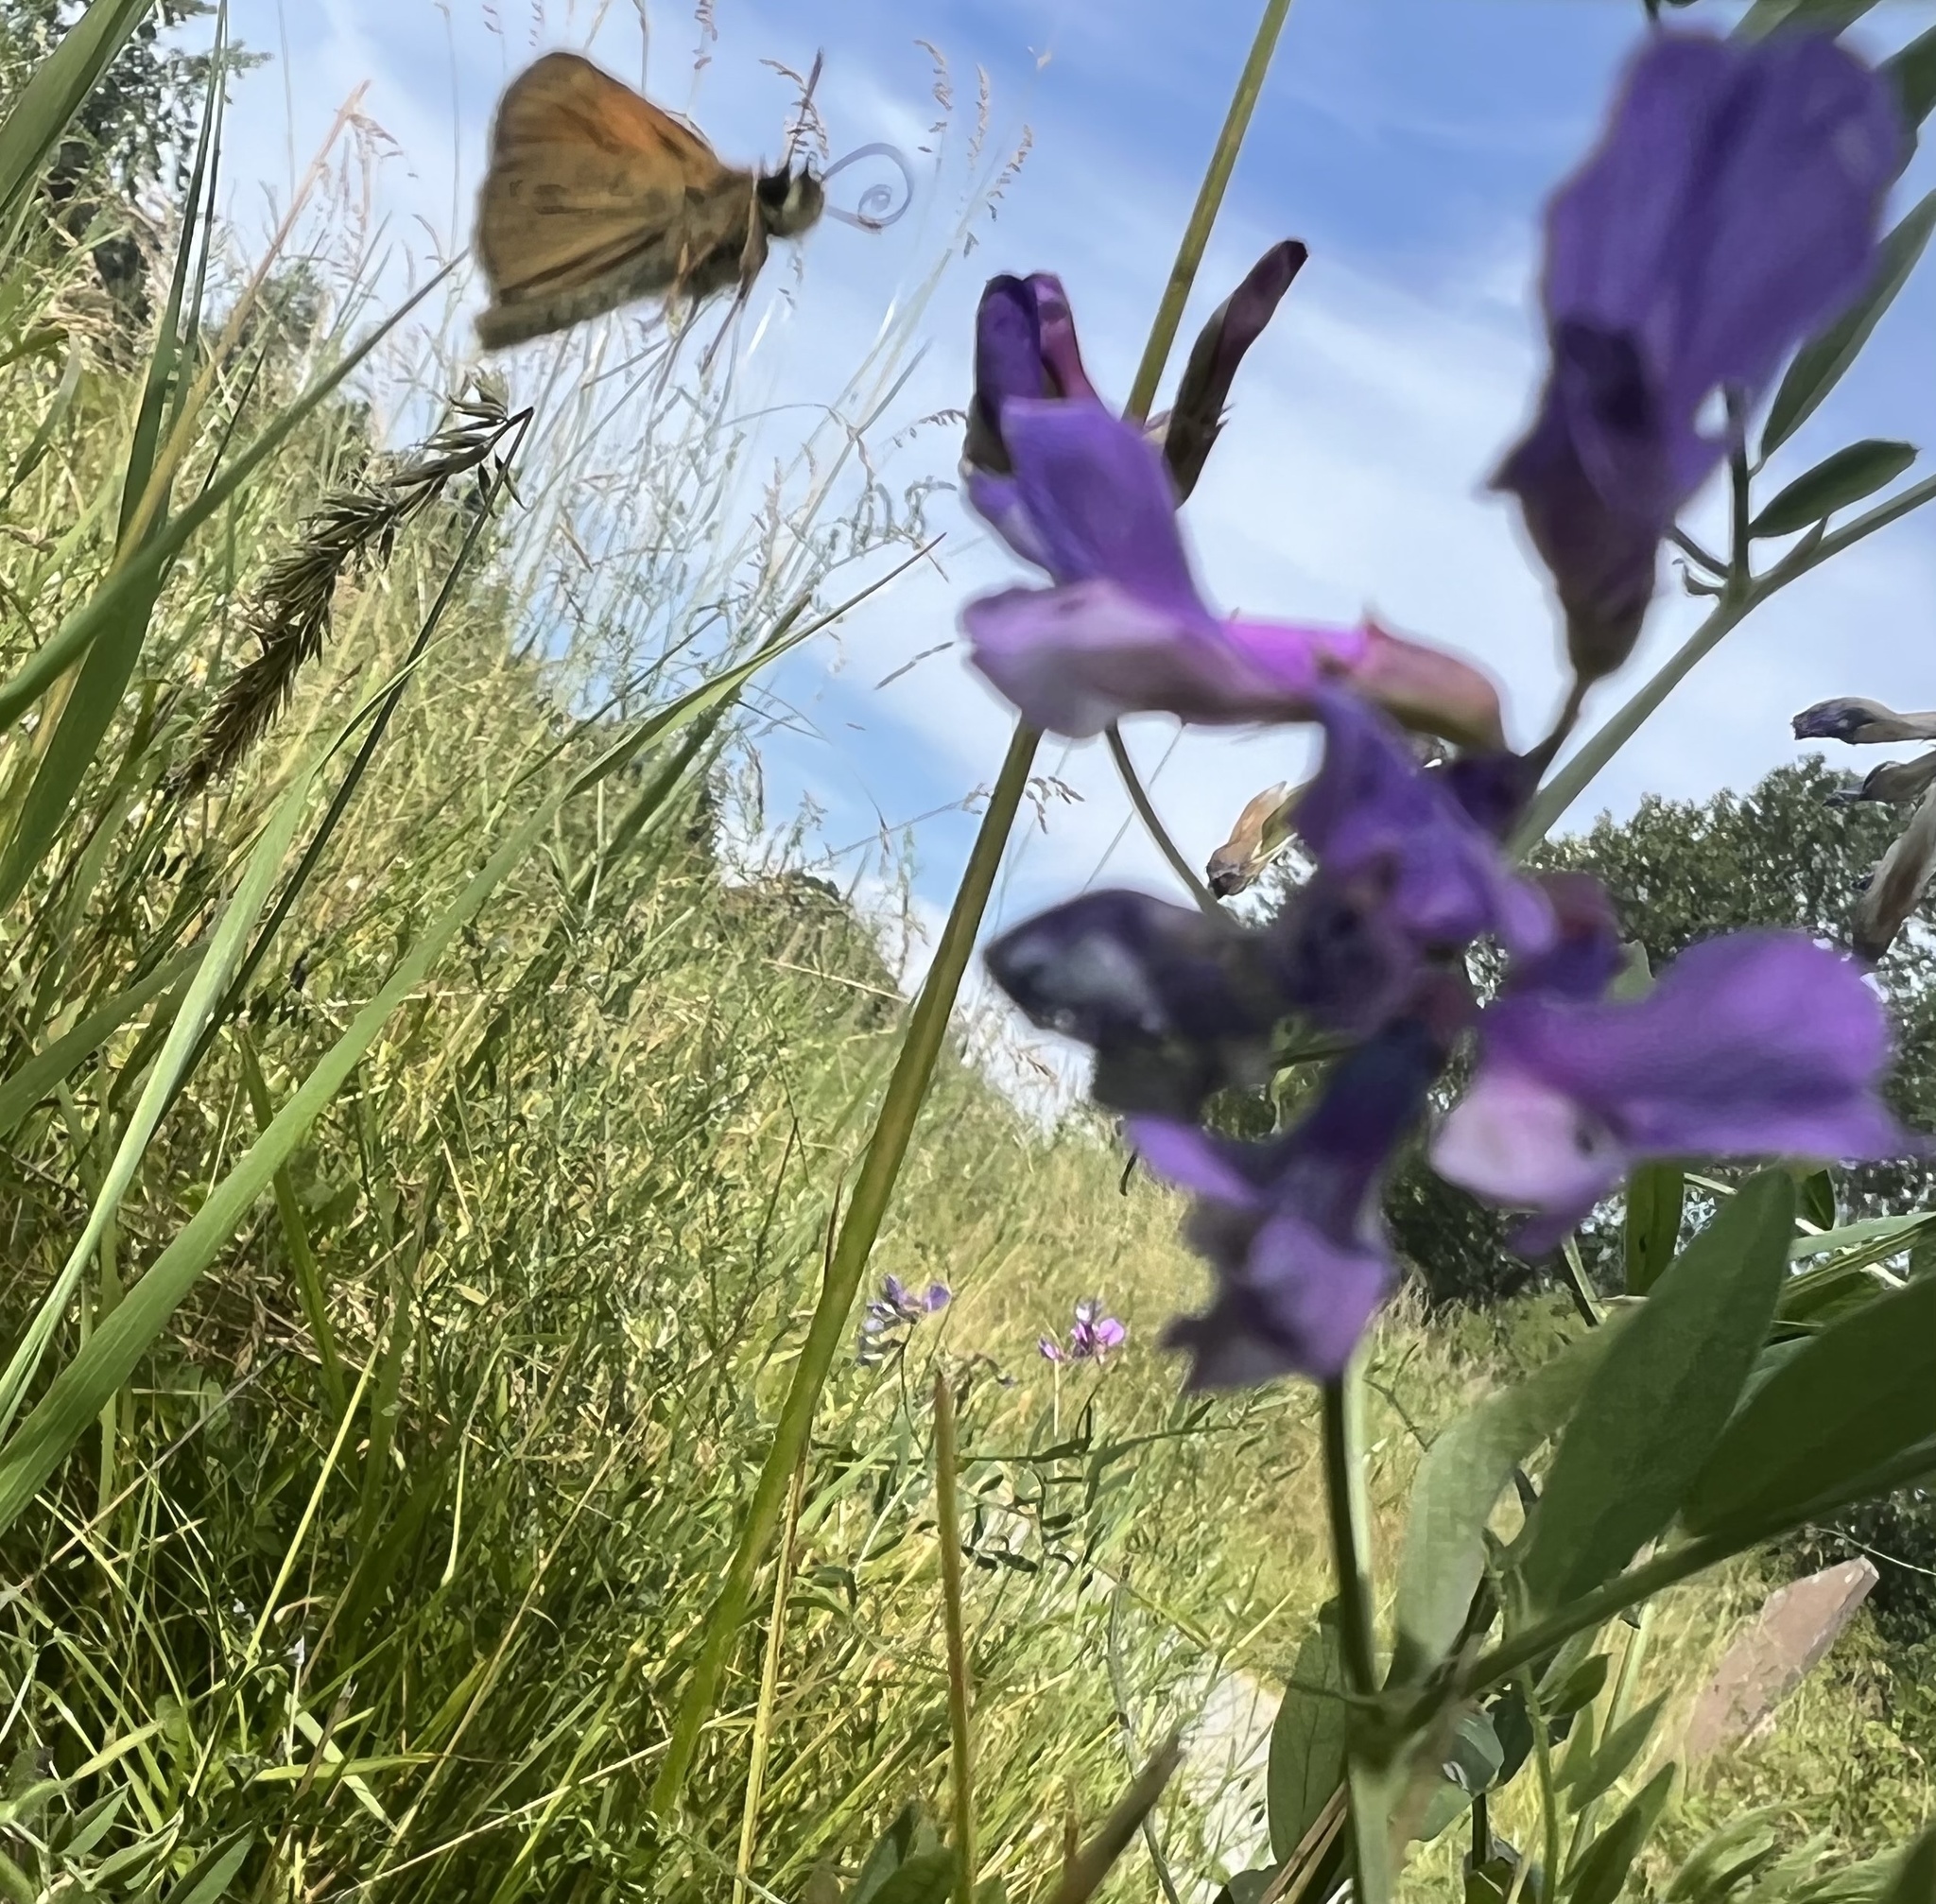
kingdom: Animalia
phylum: Arthropoda
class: Insecta
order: Lepidoptera
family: Hesperiidae
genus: Thymelicus
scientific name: Thymelicus lineola
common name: Essex skipper
